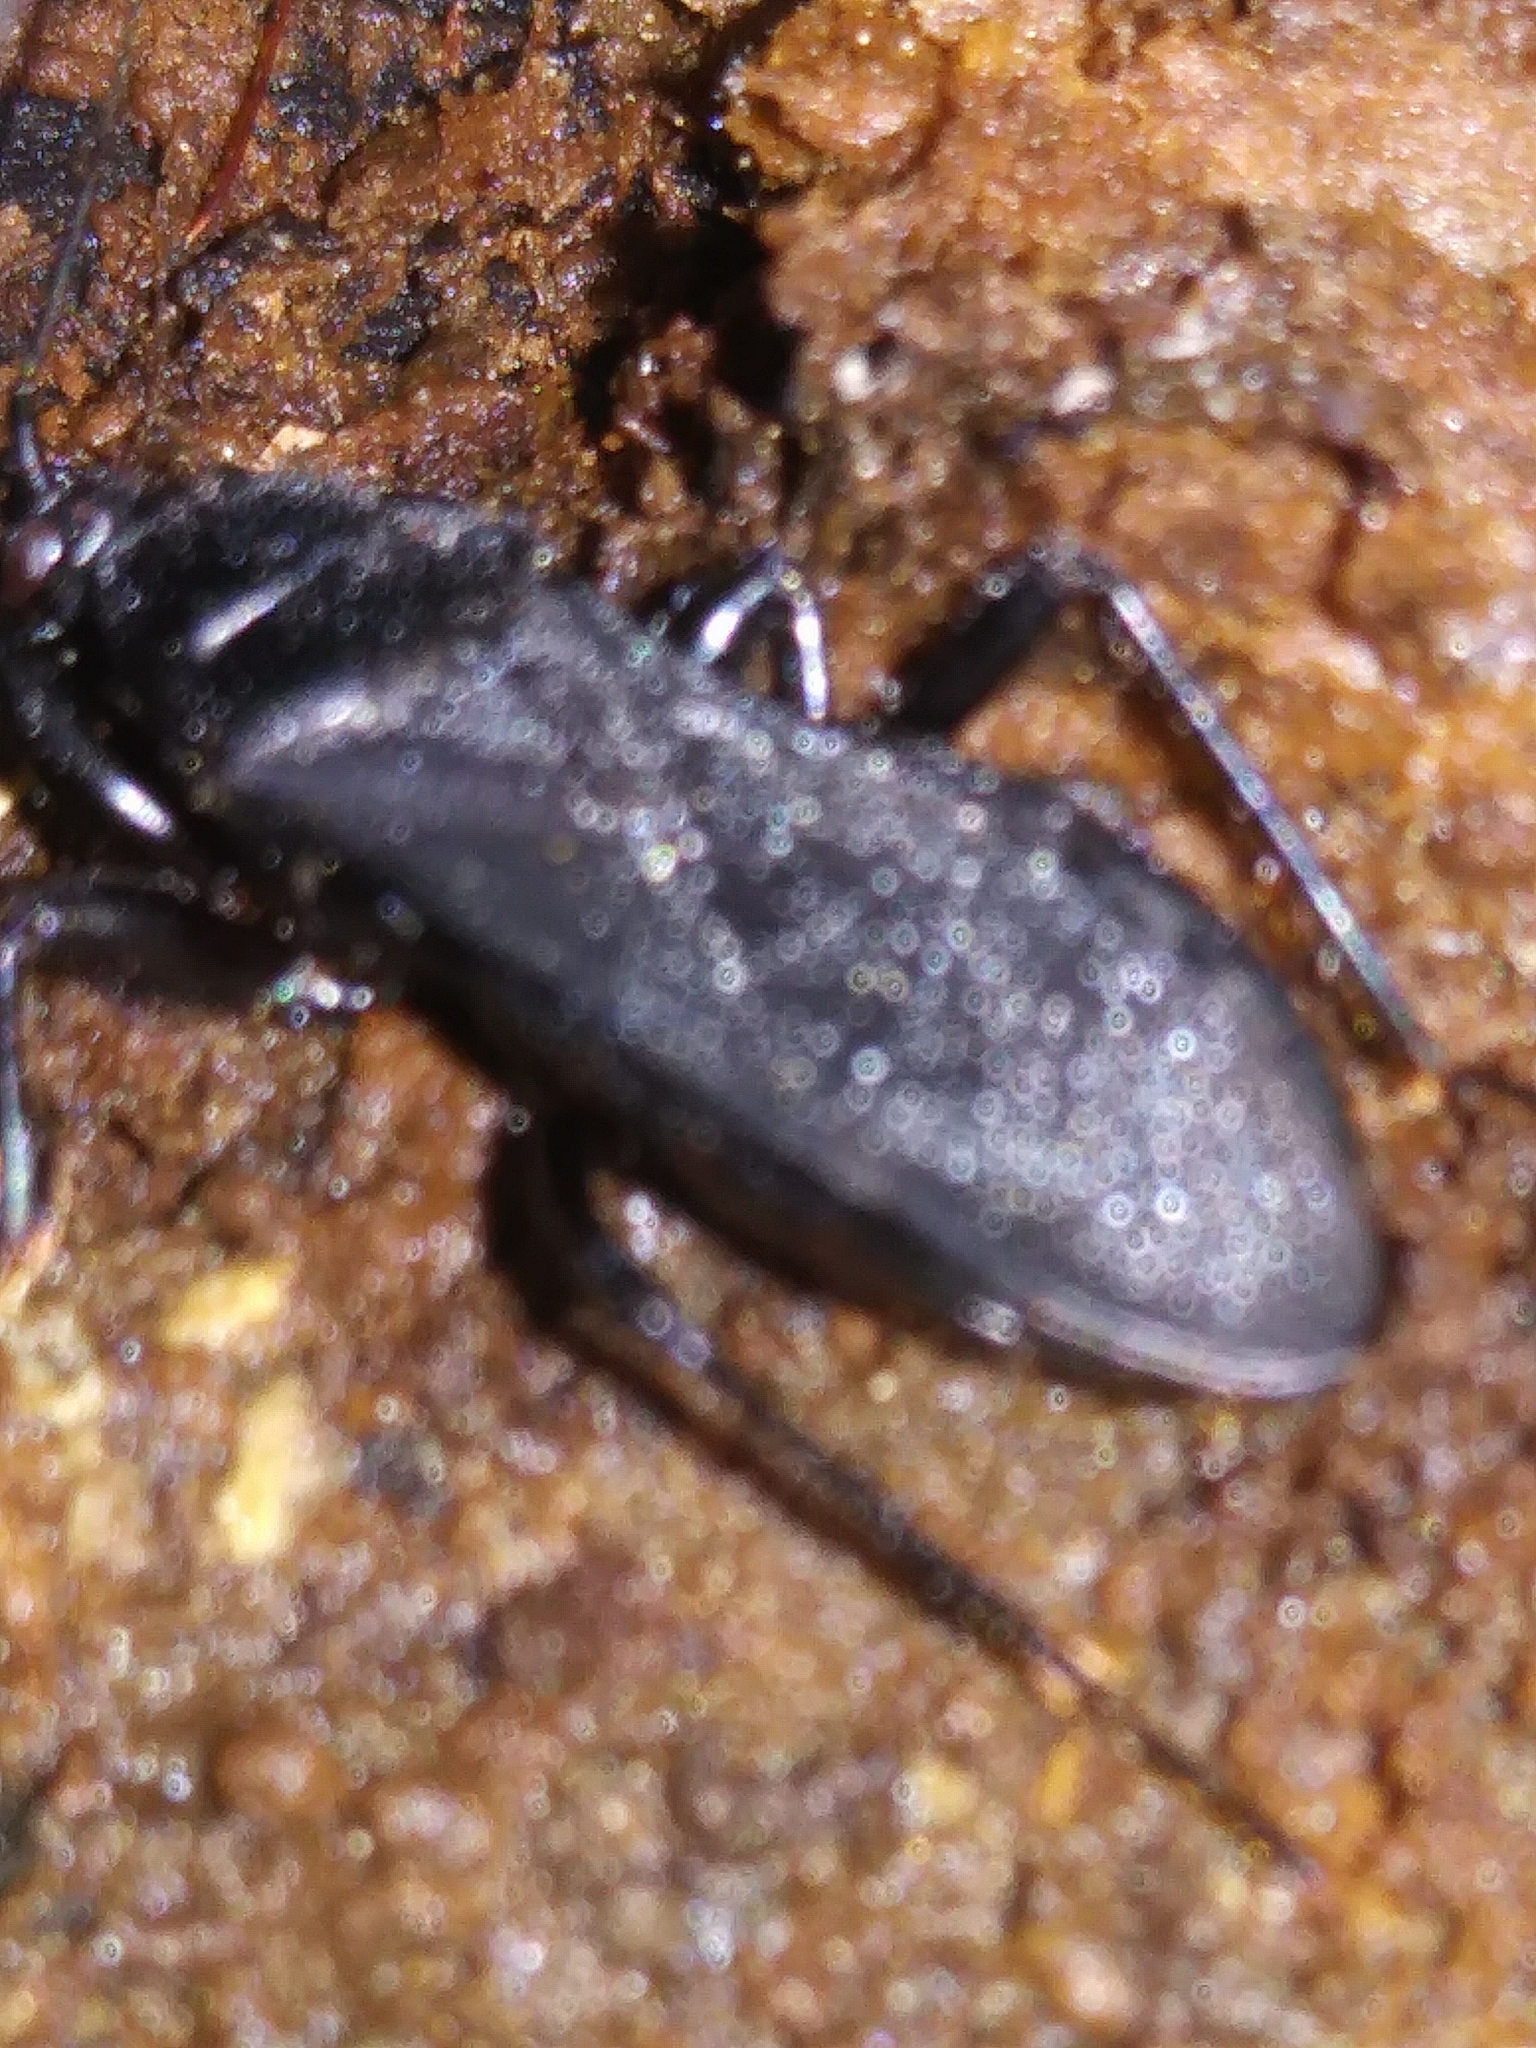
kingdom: Animalia
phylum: Arthropoda
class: Insecta
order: Hemiptera
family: Reduviidae
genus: Melanolestes
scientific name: Melanolestes picipes
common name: Assassin bug
